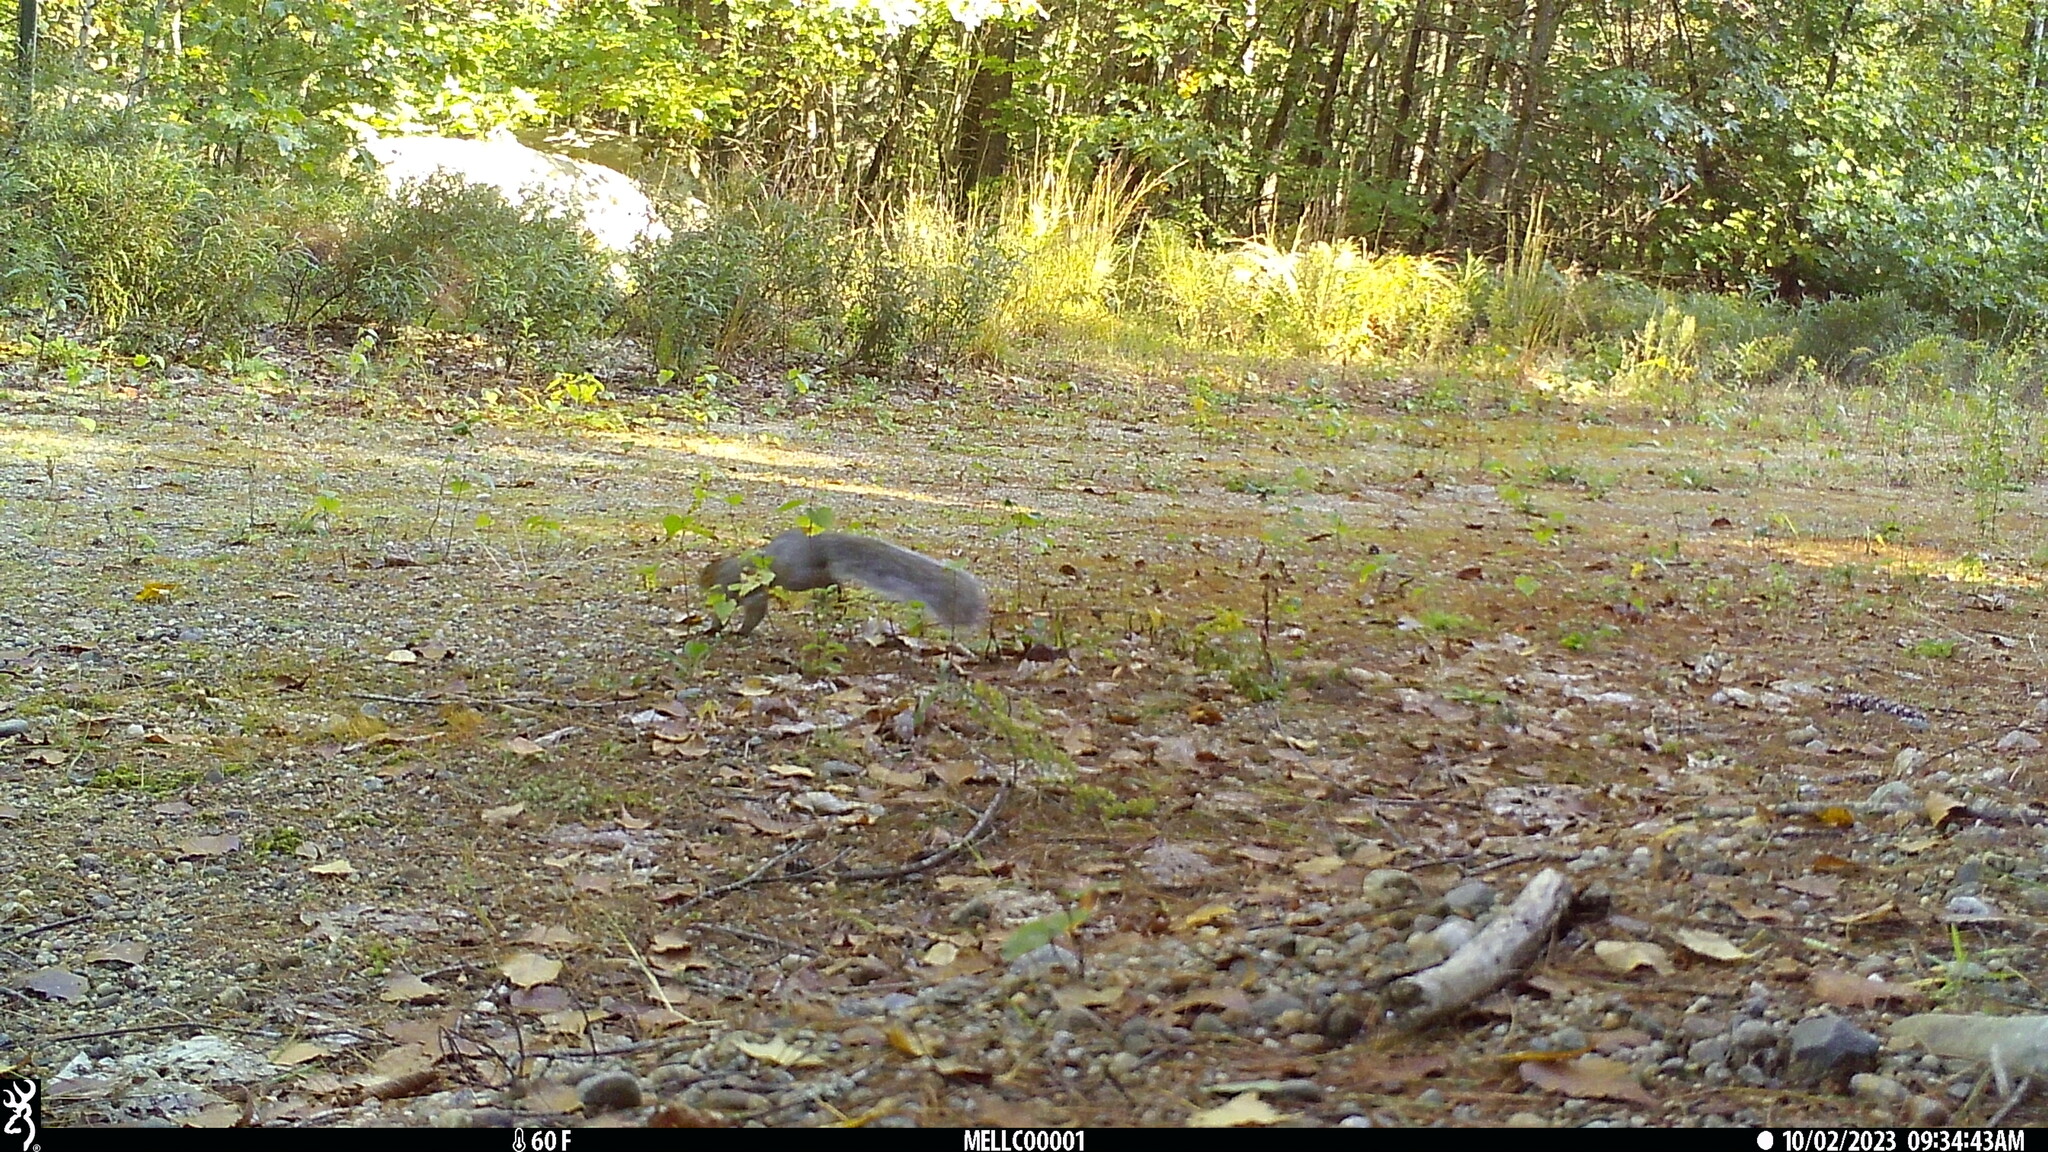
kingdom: Animalia
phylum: Chordata
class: Mammalia
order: Rodentia
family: Sciuridae
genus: Sciurus
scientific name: Sciurus carolinensis
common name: Eastern gray squirrel
